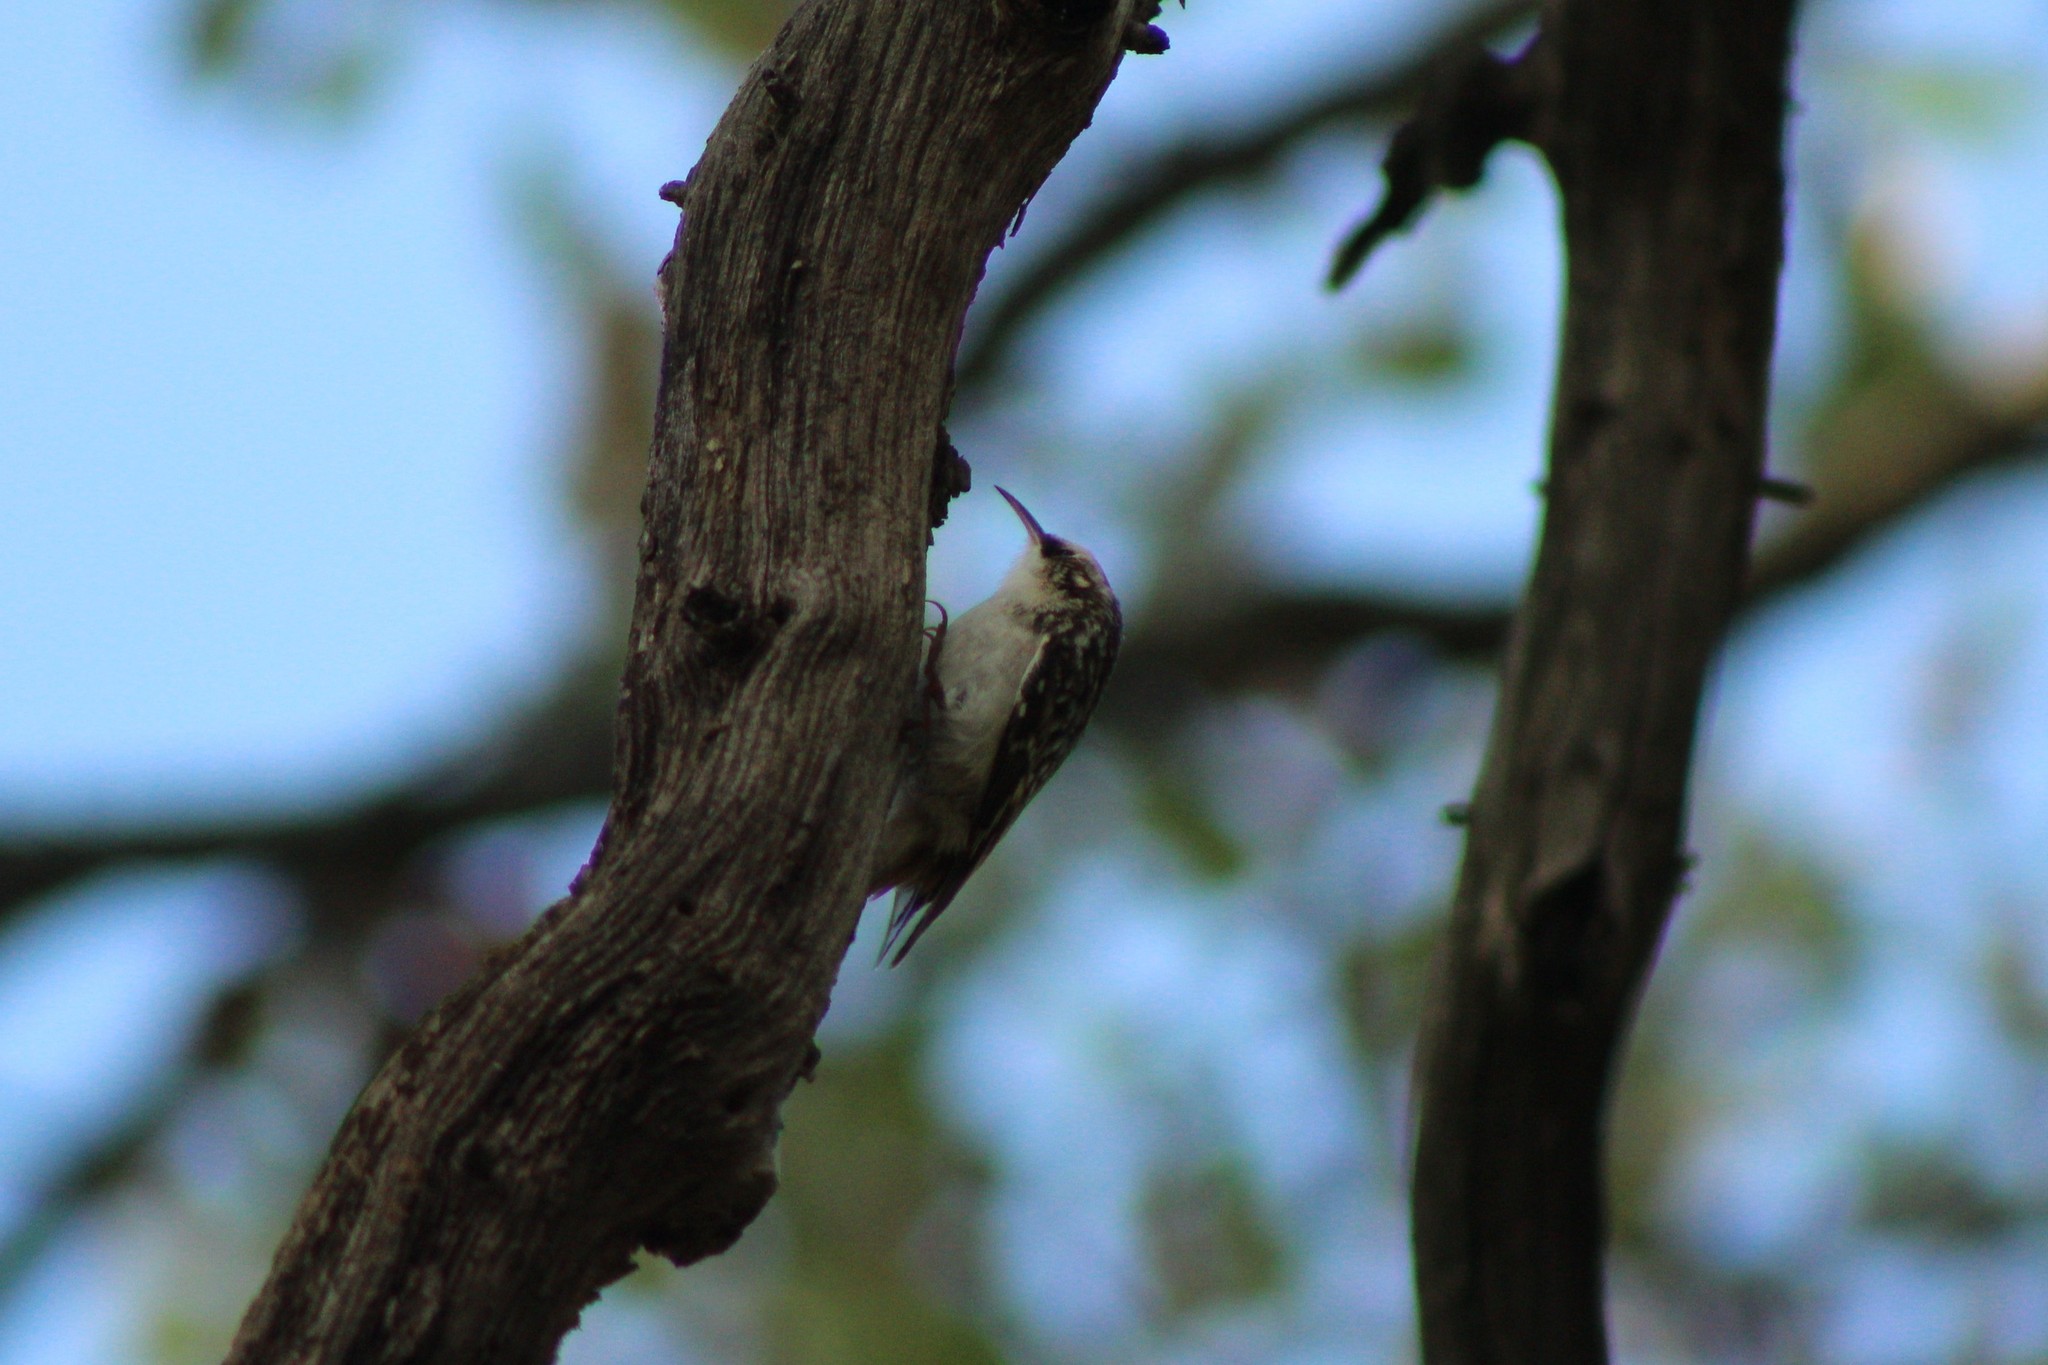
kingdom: Animalia
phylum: Chordata
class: Aves
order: Passeriformes
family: Certhiidae
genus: Certhia
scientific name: Certhia americana
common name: Brown creeper
